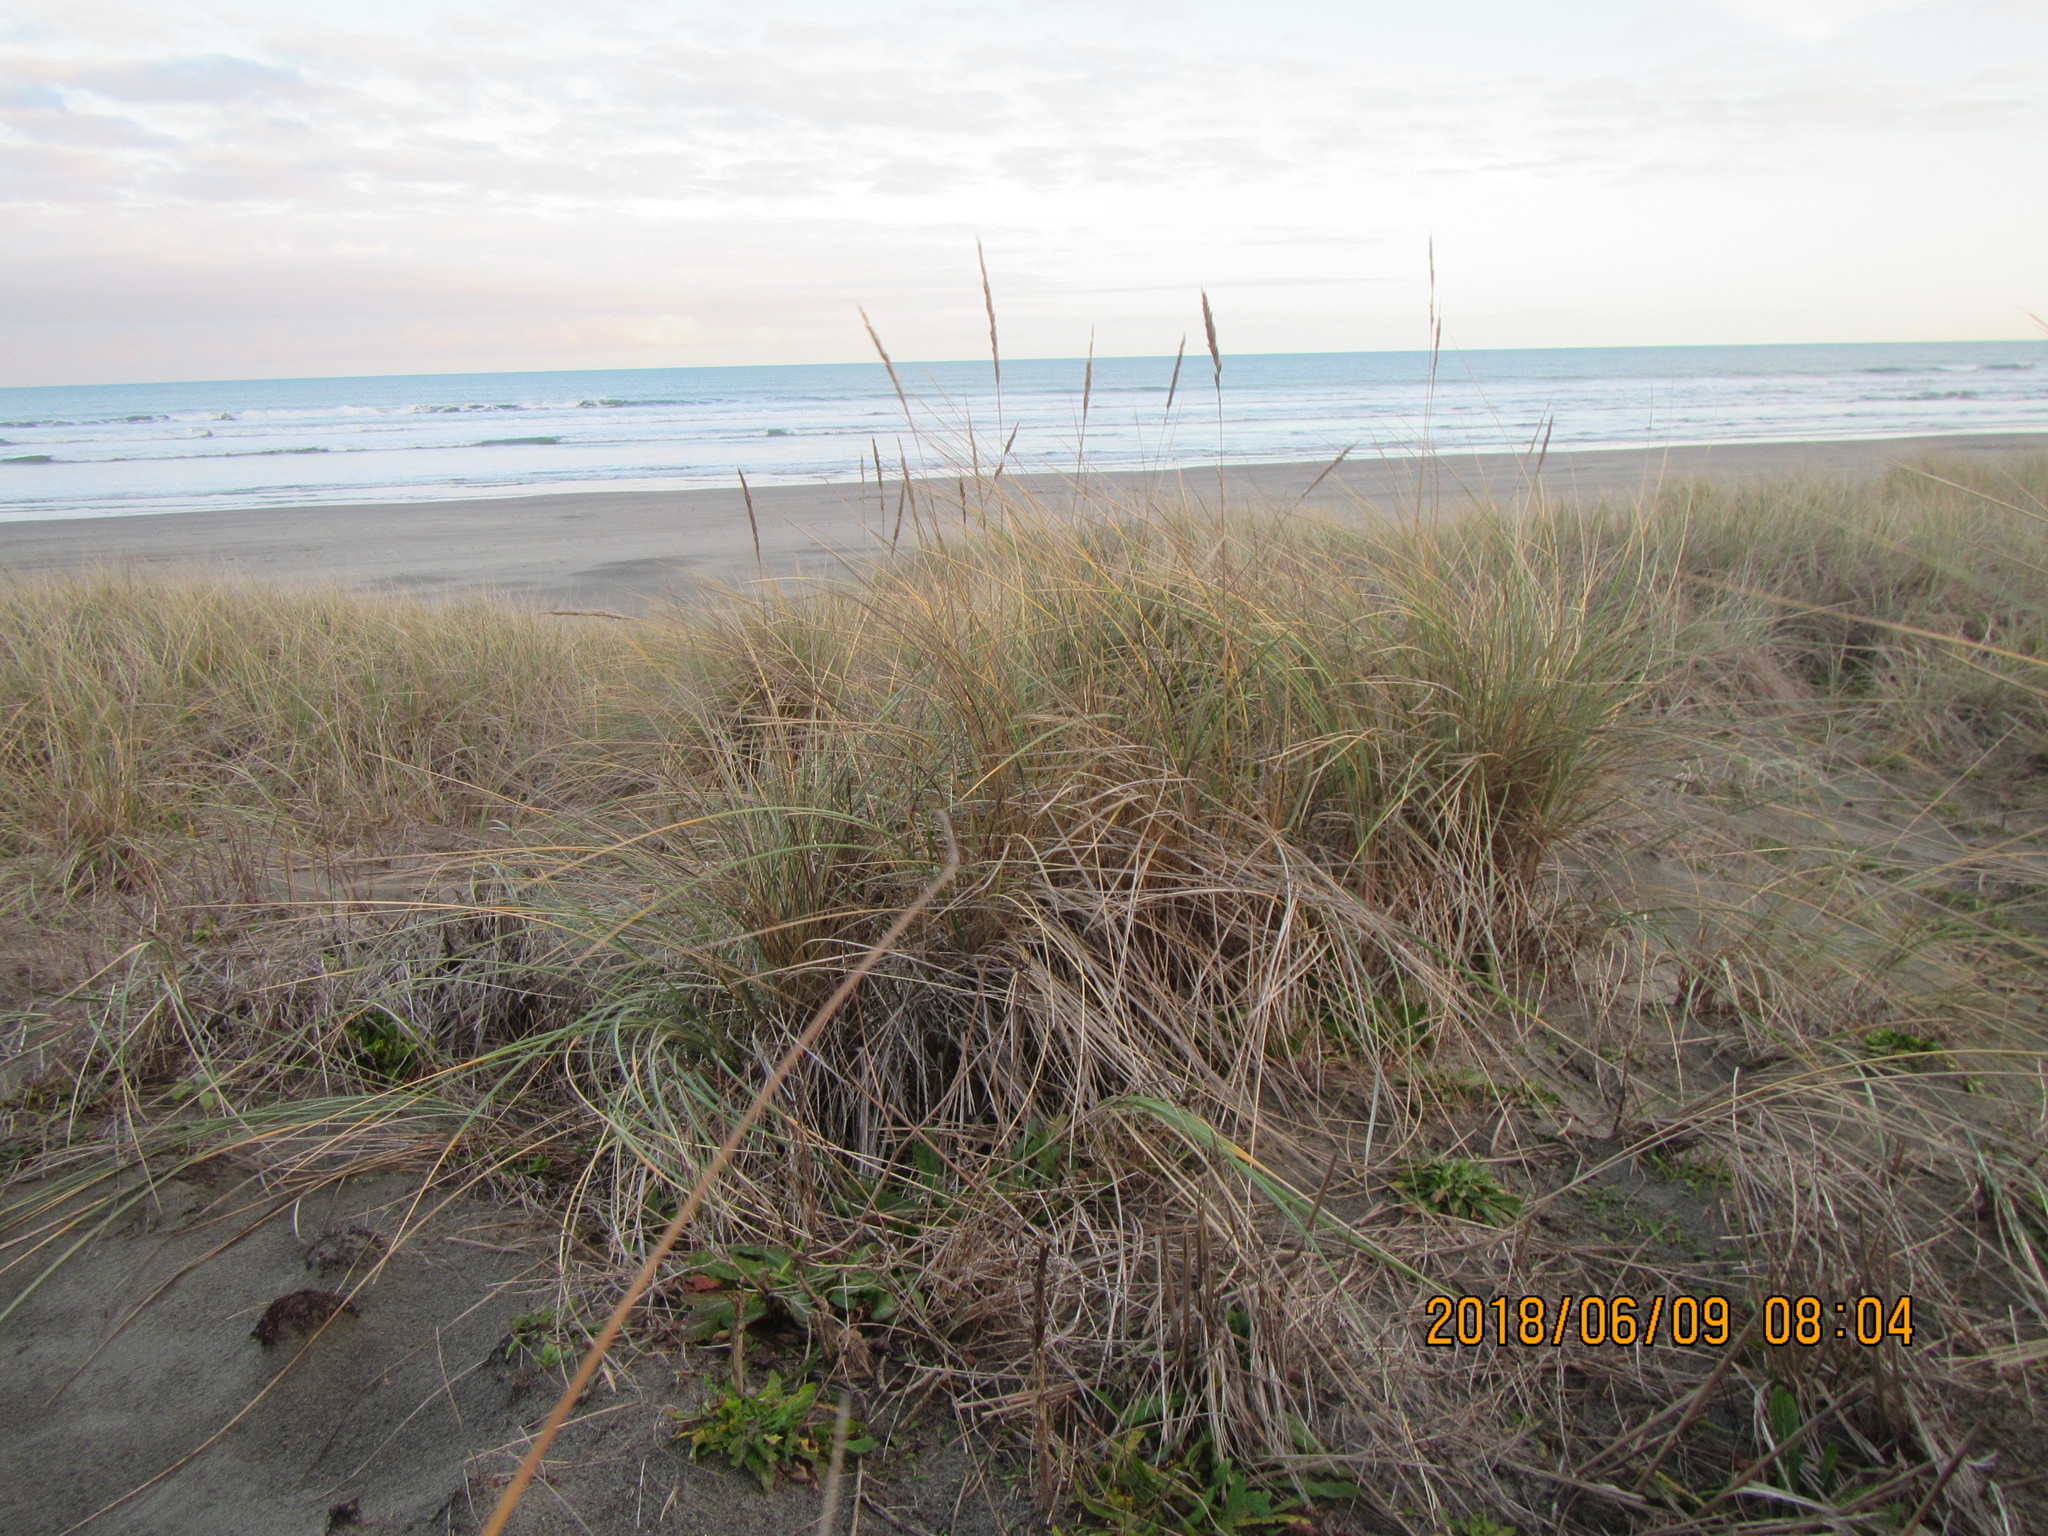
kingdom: Plantae
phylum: Tracheophyta
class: Liliopsida
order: Poales
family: Poaceae
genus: Calamagrostis
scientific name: Calamagrostis arenaria
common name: European beachgrass
